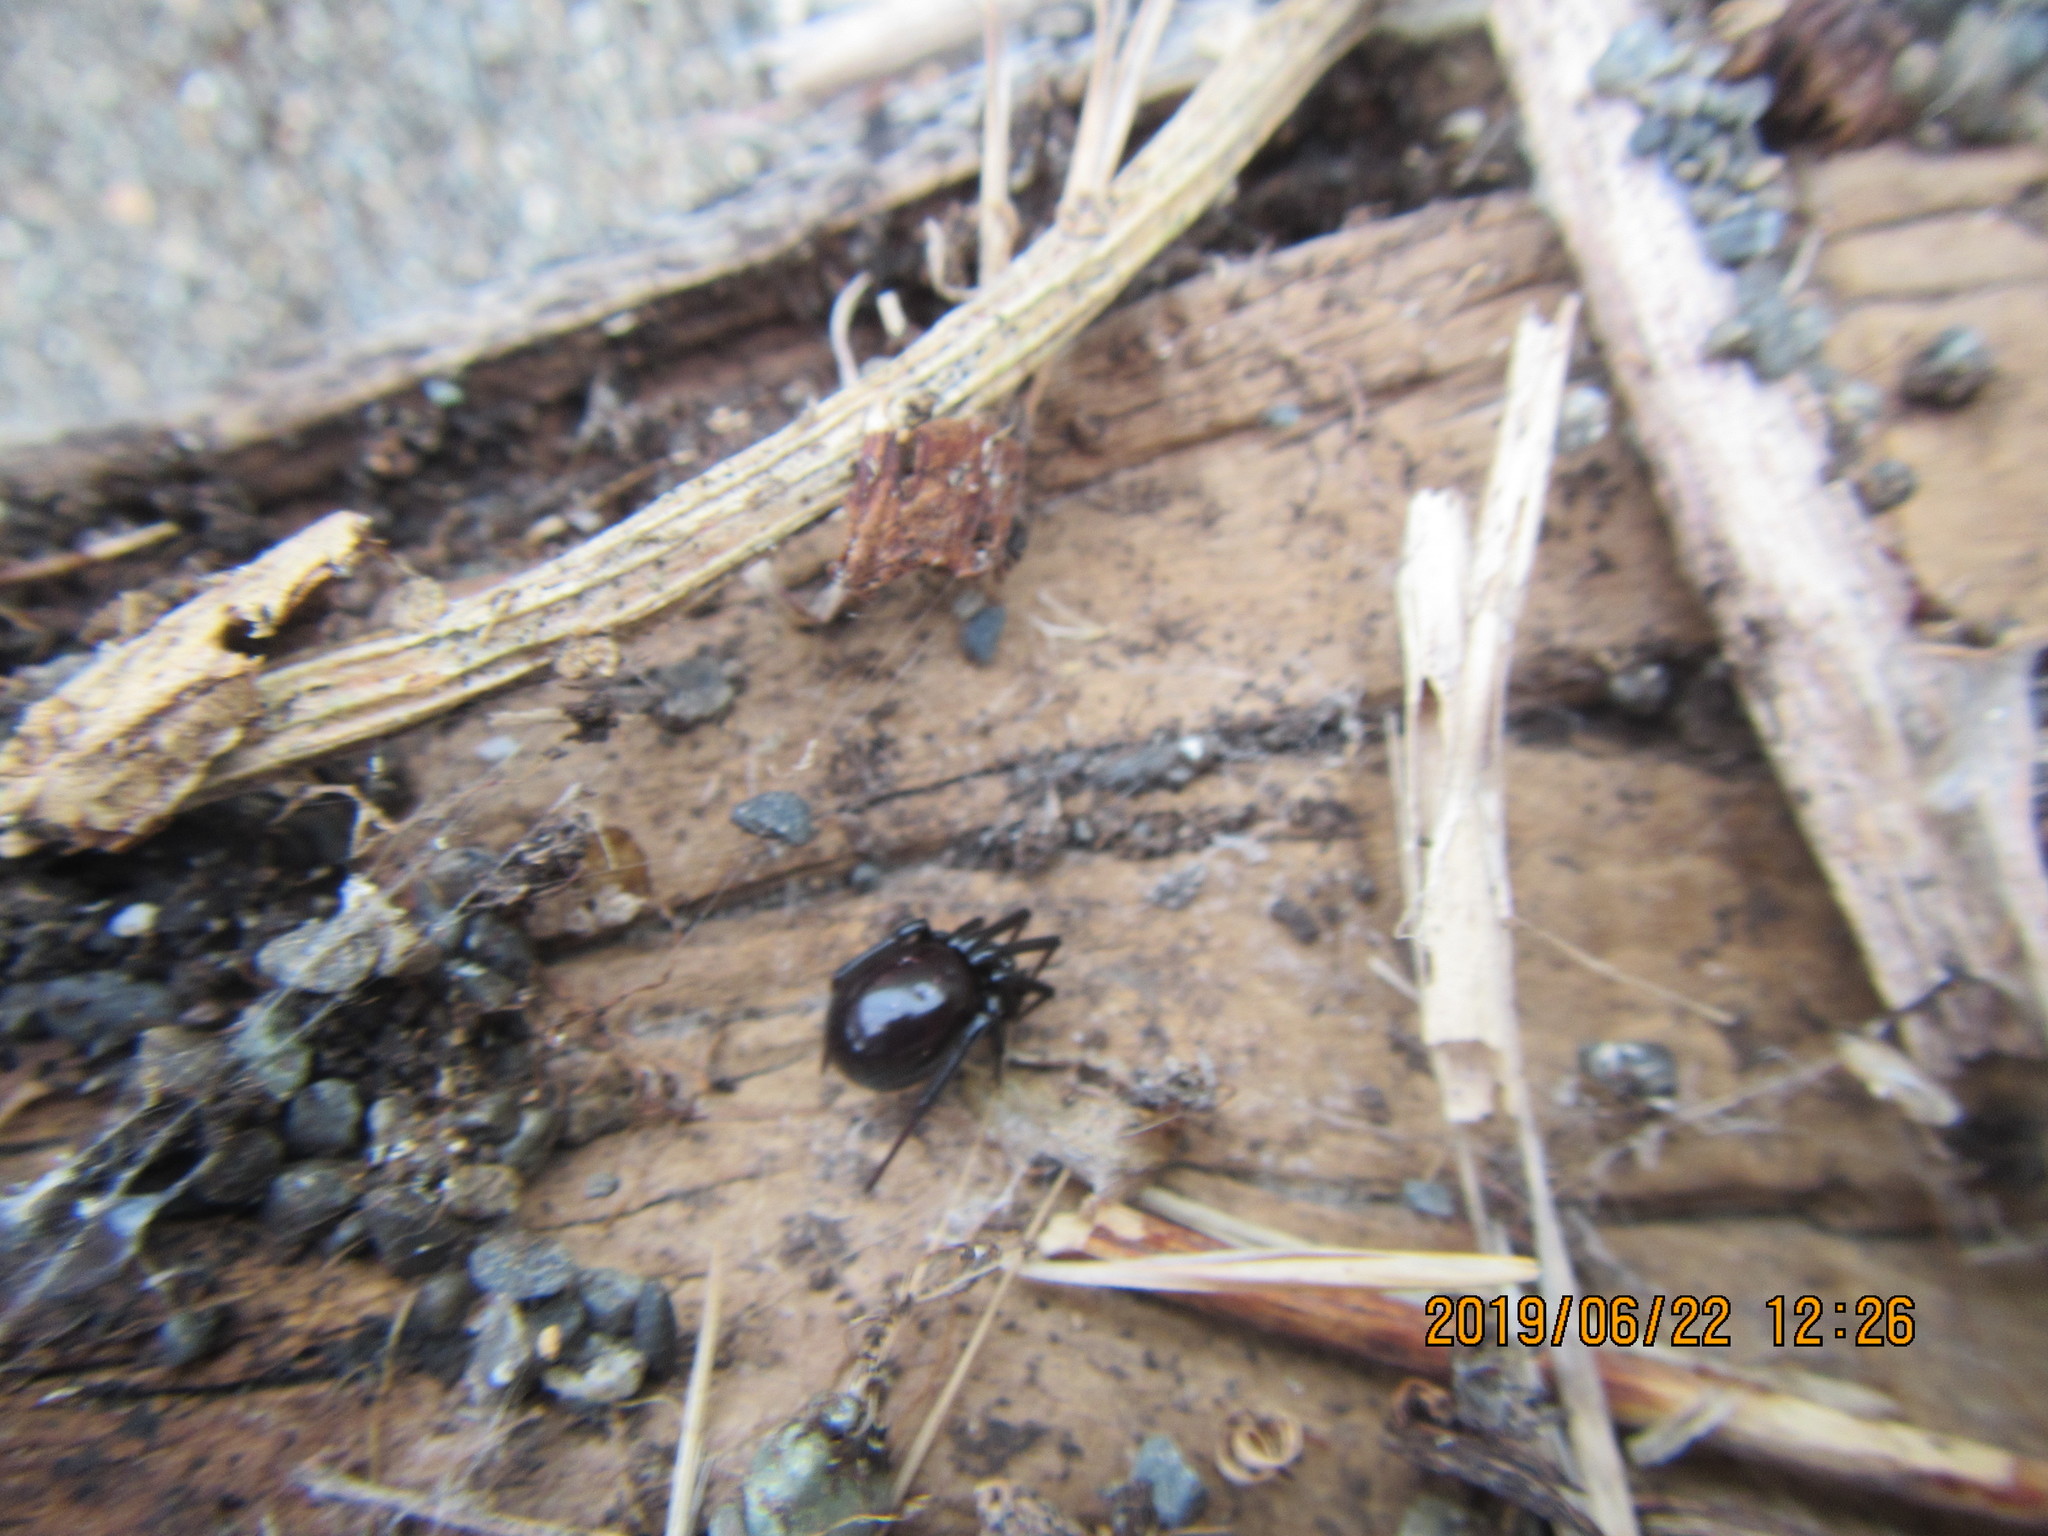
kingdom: Animalia
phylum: Arthropoda
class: Arachnida
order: Araneae
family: Theridiidae
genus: Steatoda
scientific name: Steatoda capensis
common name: Cobweb weaver
